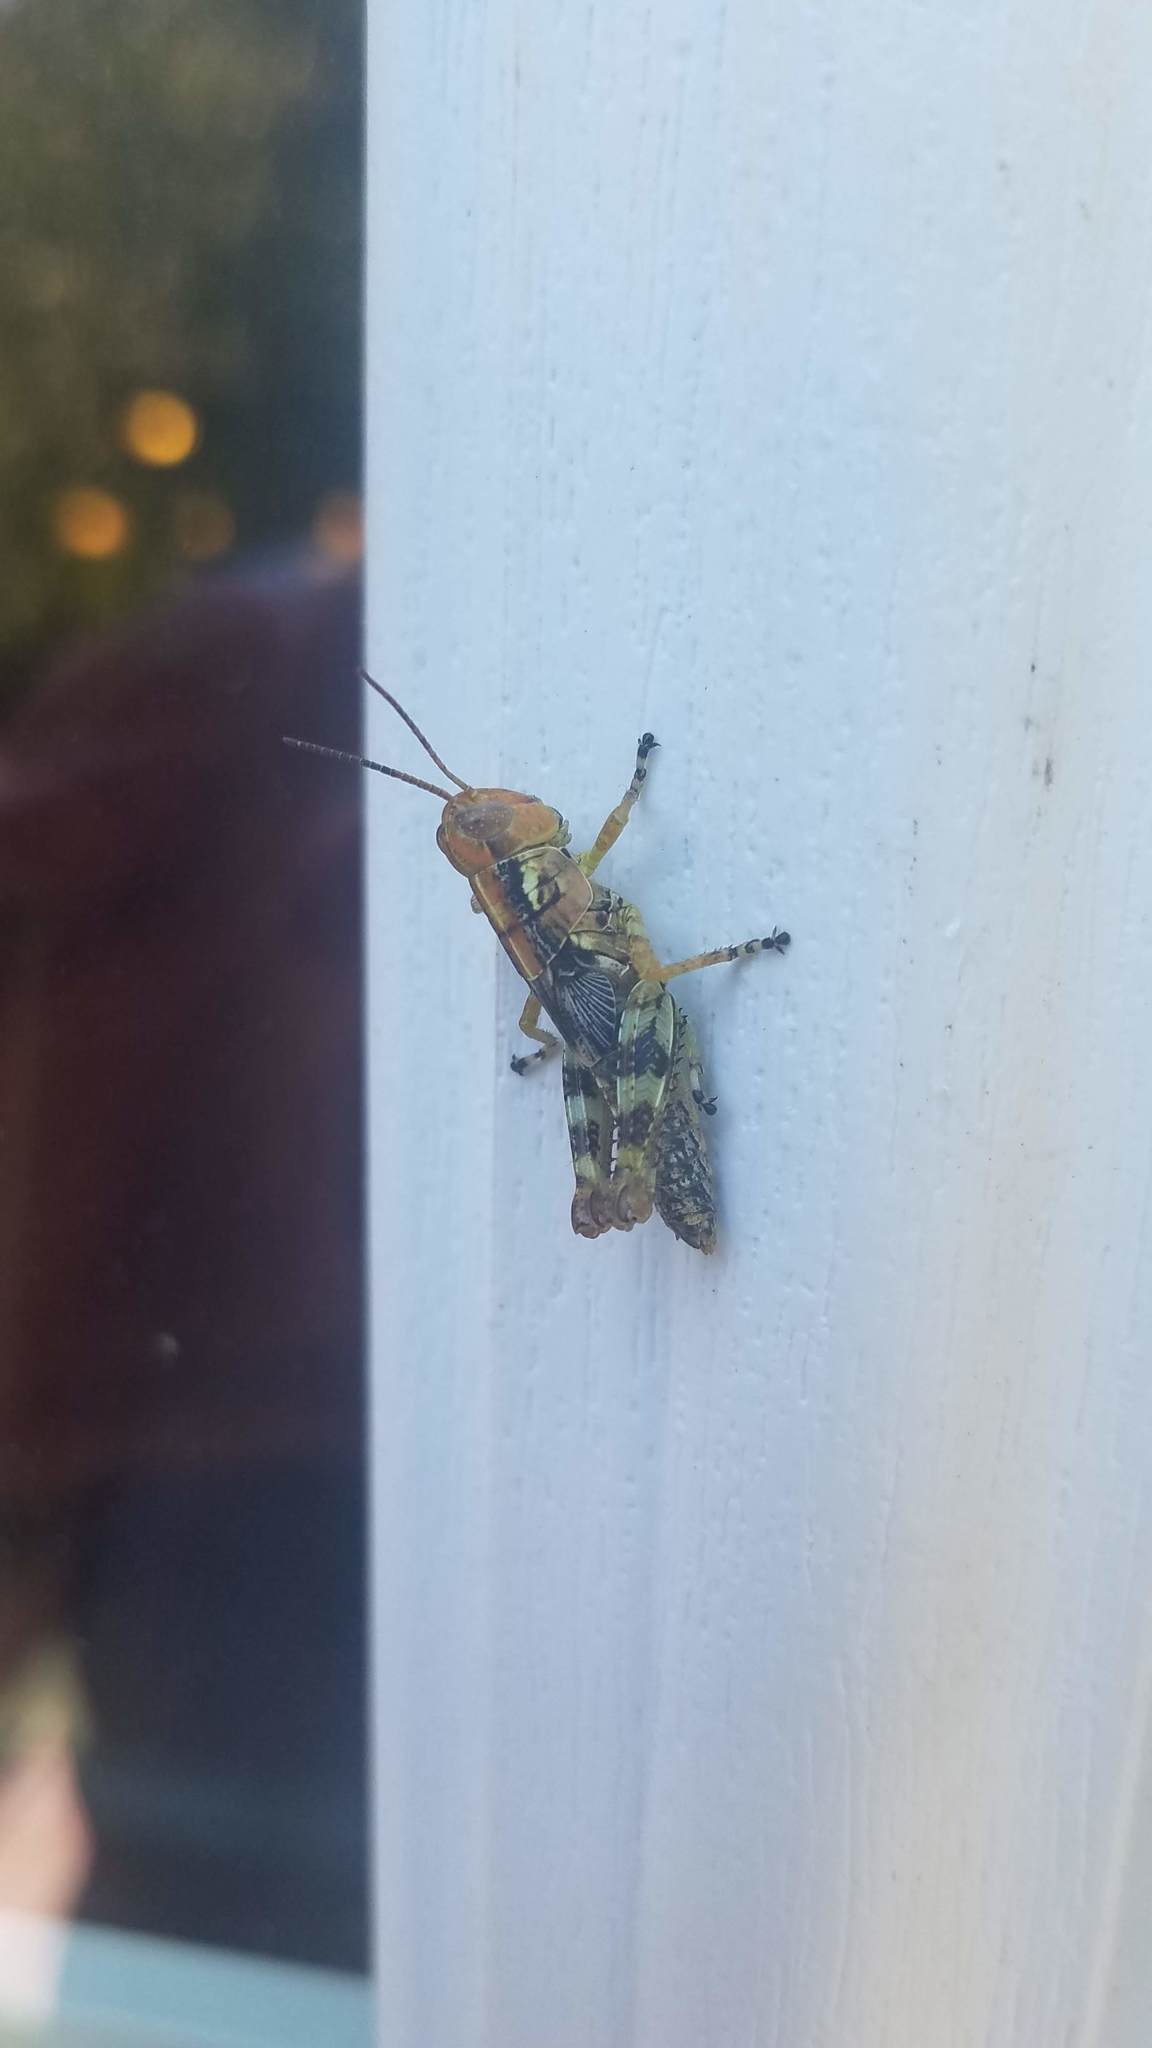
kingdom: Animalia
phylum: Arthropoda
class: Insecta
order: Orthoptera
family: Acrididae
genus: Melanoplus
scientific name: Melanoplus punctulatus
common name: Pine-tree spur-throat grasshopper
